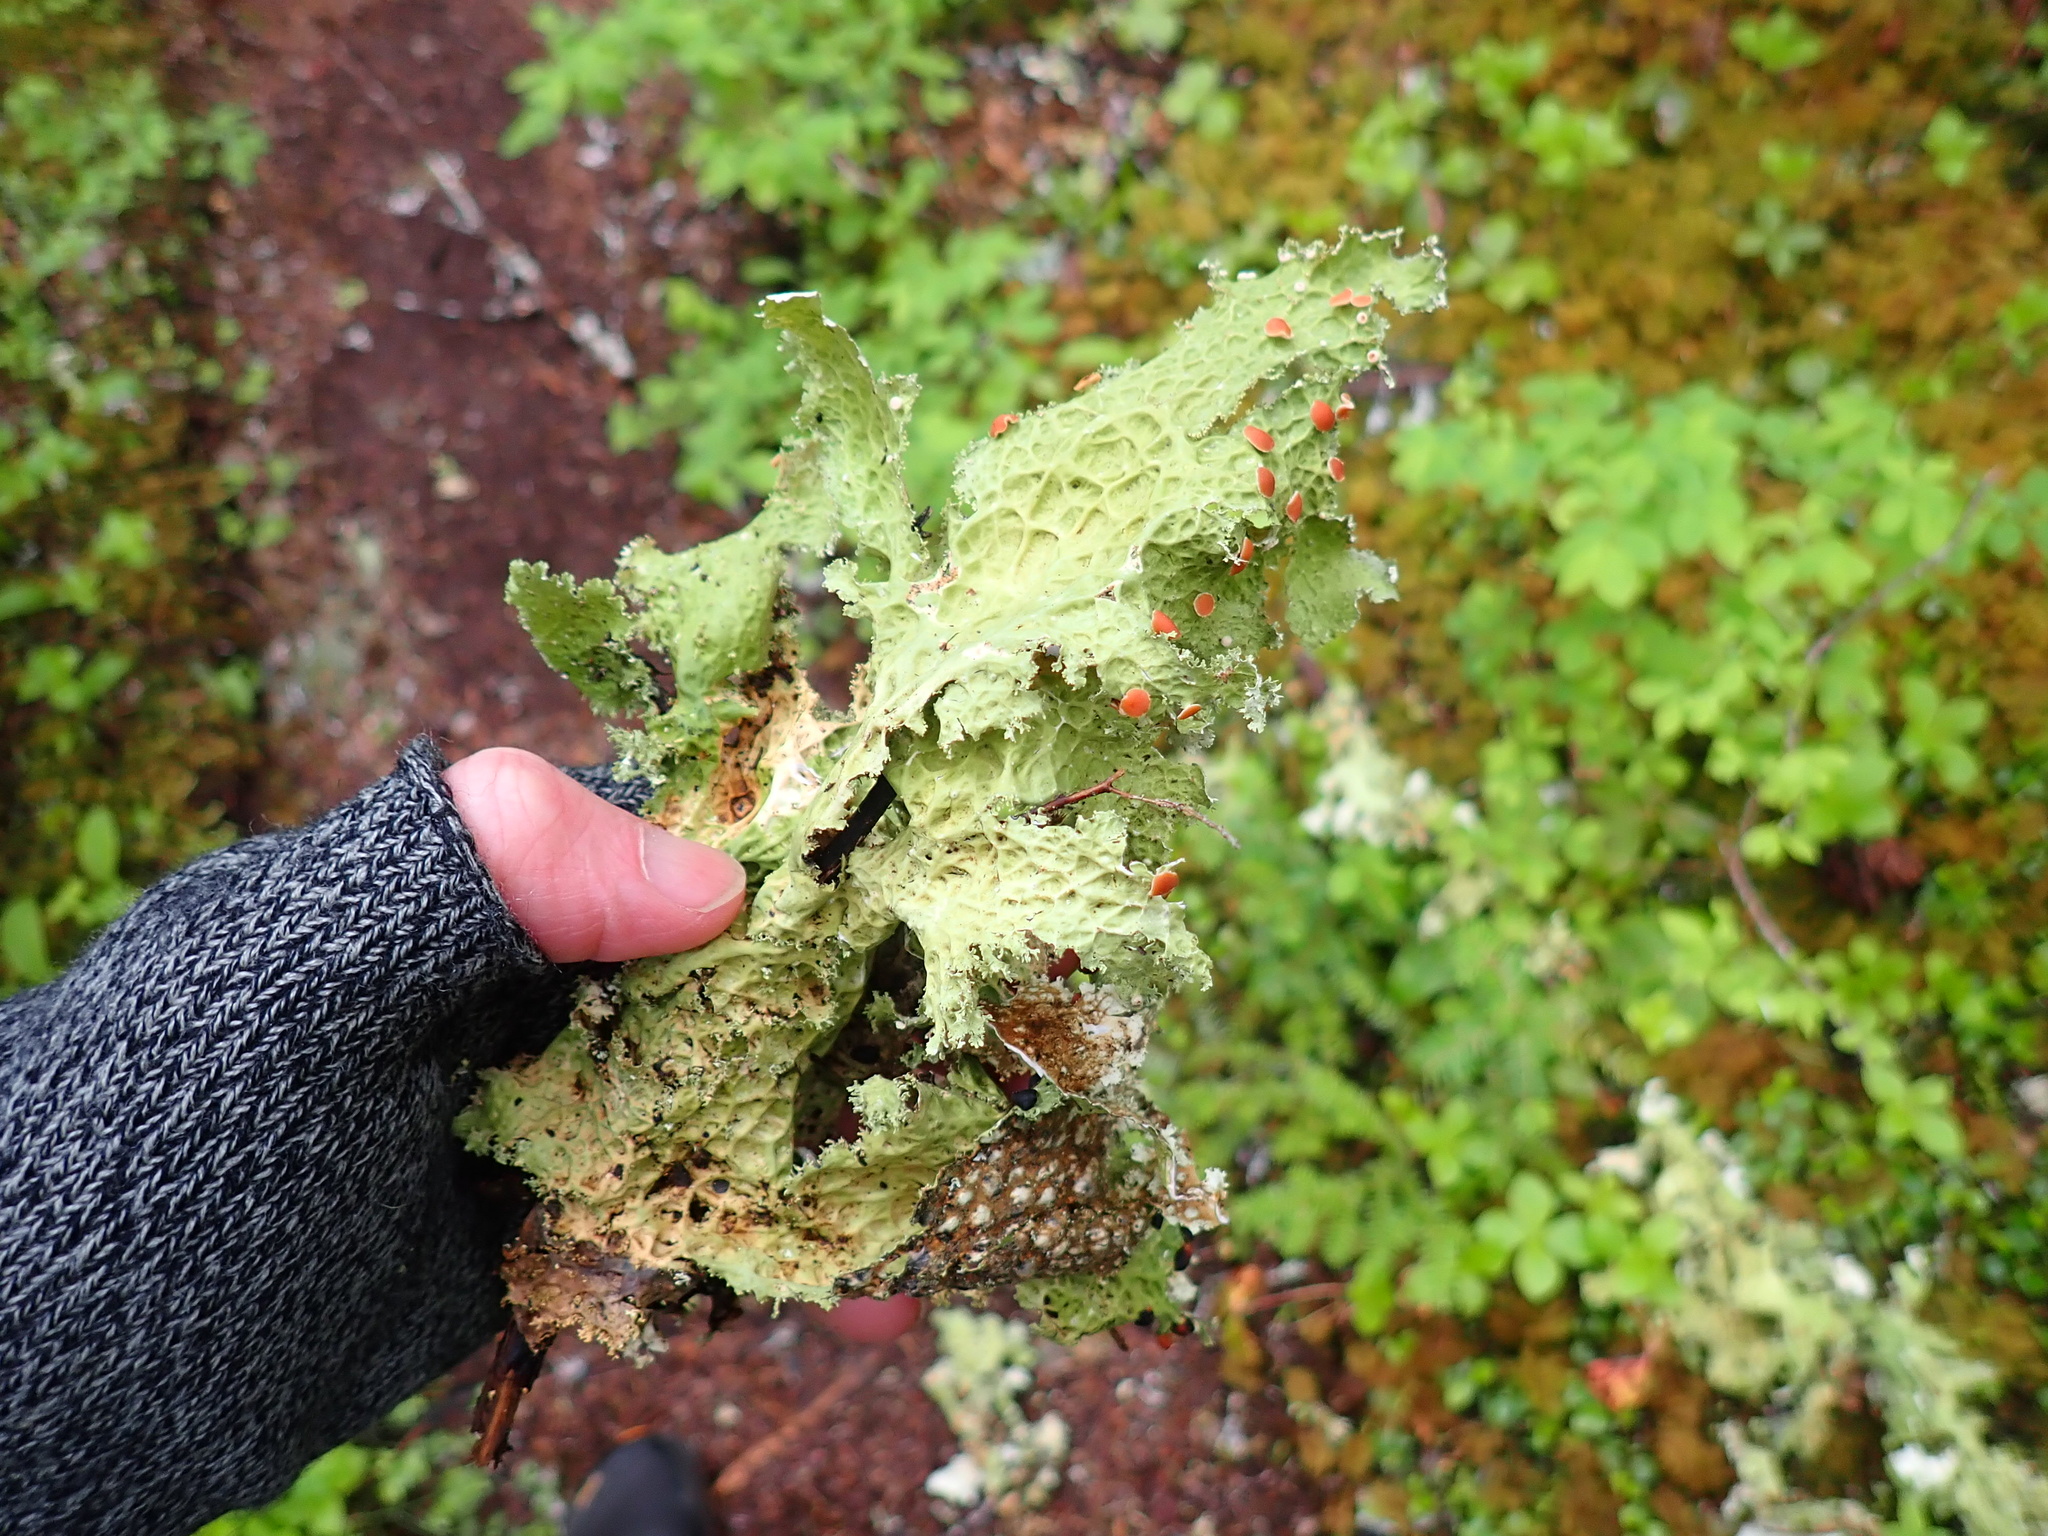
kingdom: Fungi
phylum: Ascomycota
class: Lecanoromycetes
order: Peltigerales
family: Lobariaceae
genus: Lobaria
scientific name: Lobaria oregana
